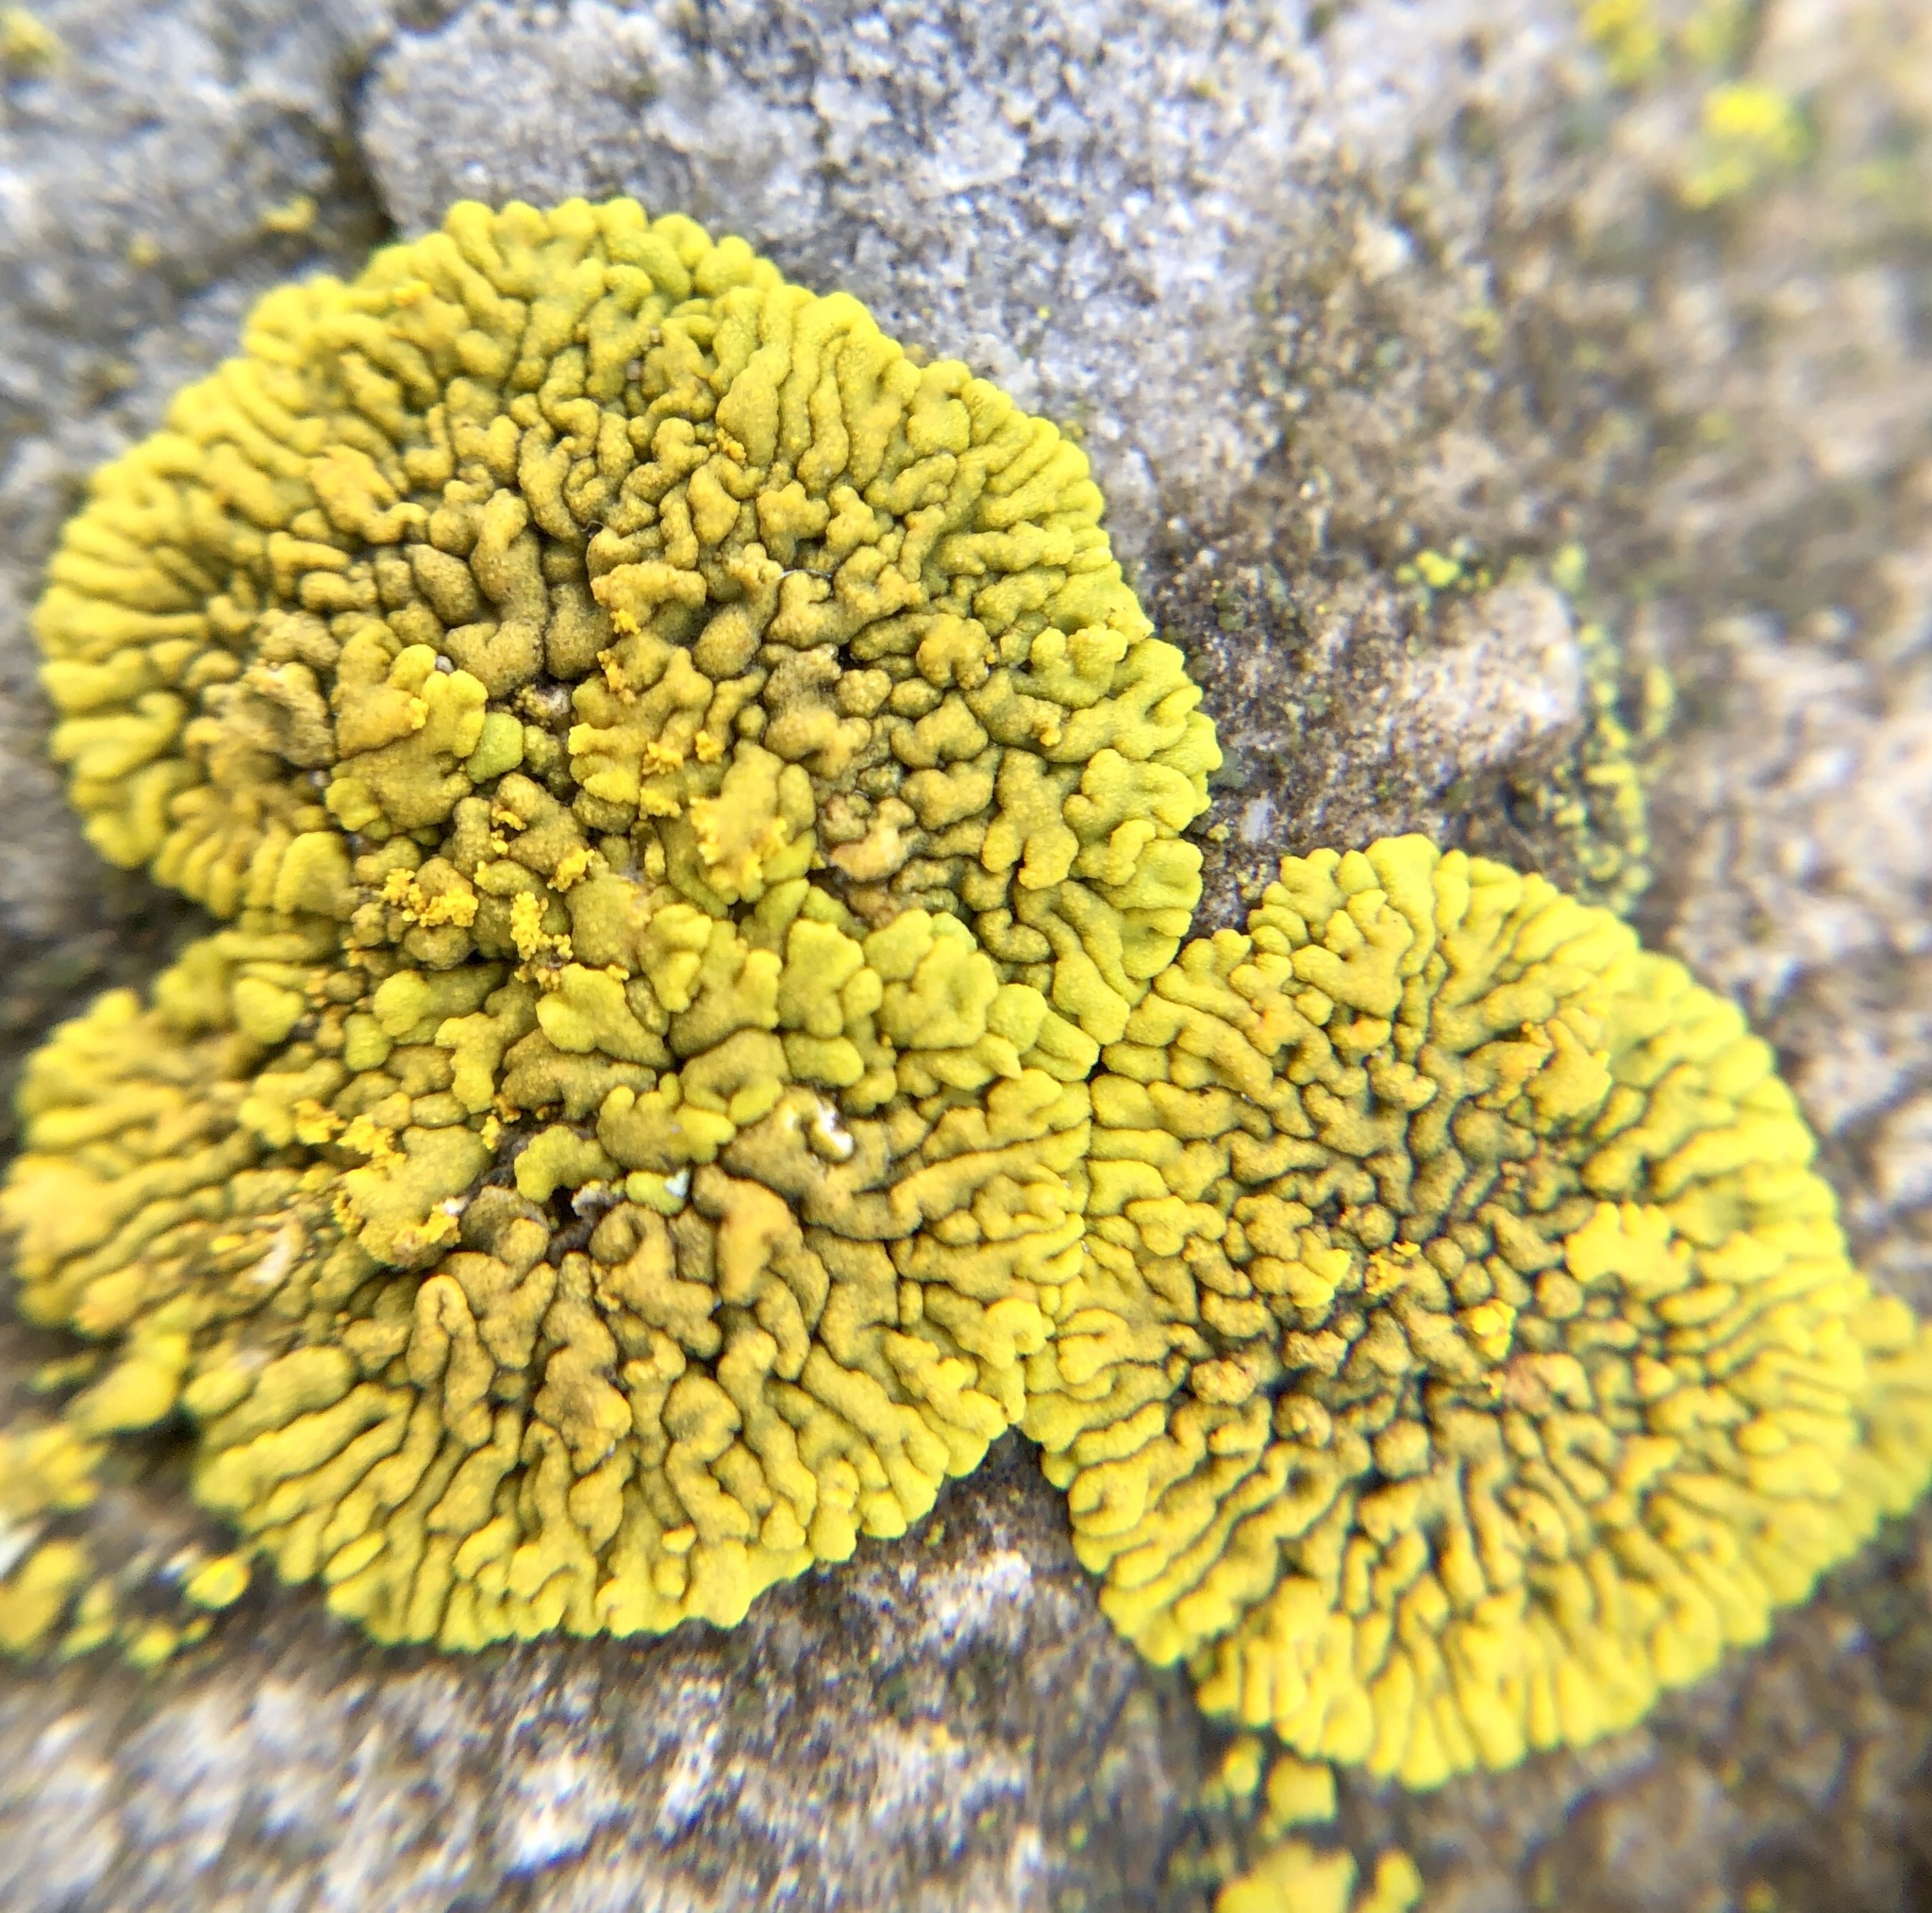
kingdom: Fungi
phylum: Ascomycota
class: Lecanoromycetes
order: Teloschistales
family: Teloschistaceae
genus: Calogaya
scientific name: Calogaya decipiens
